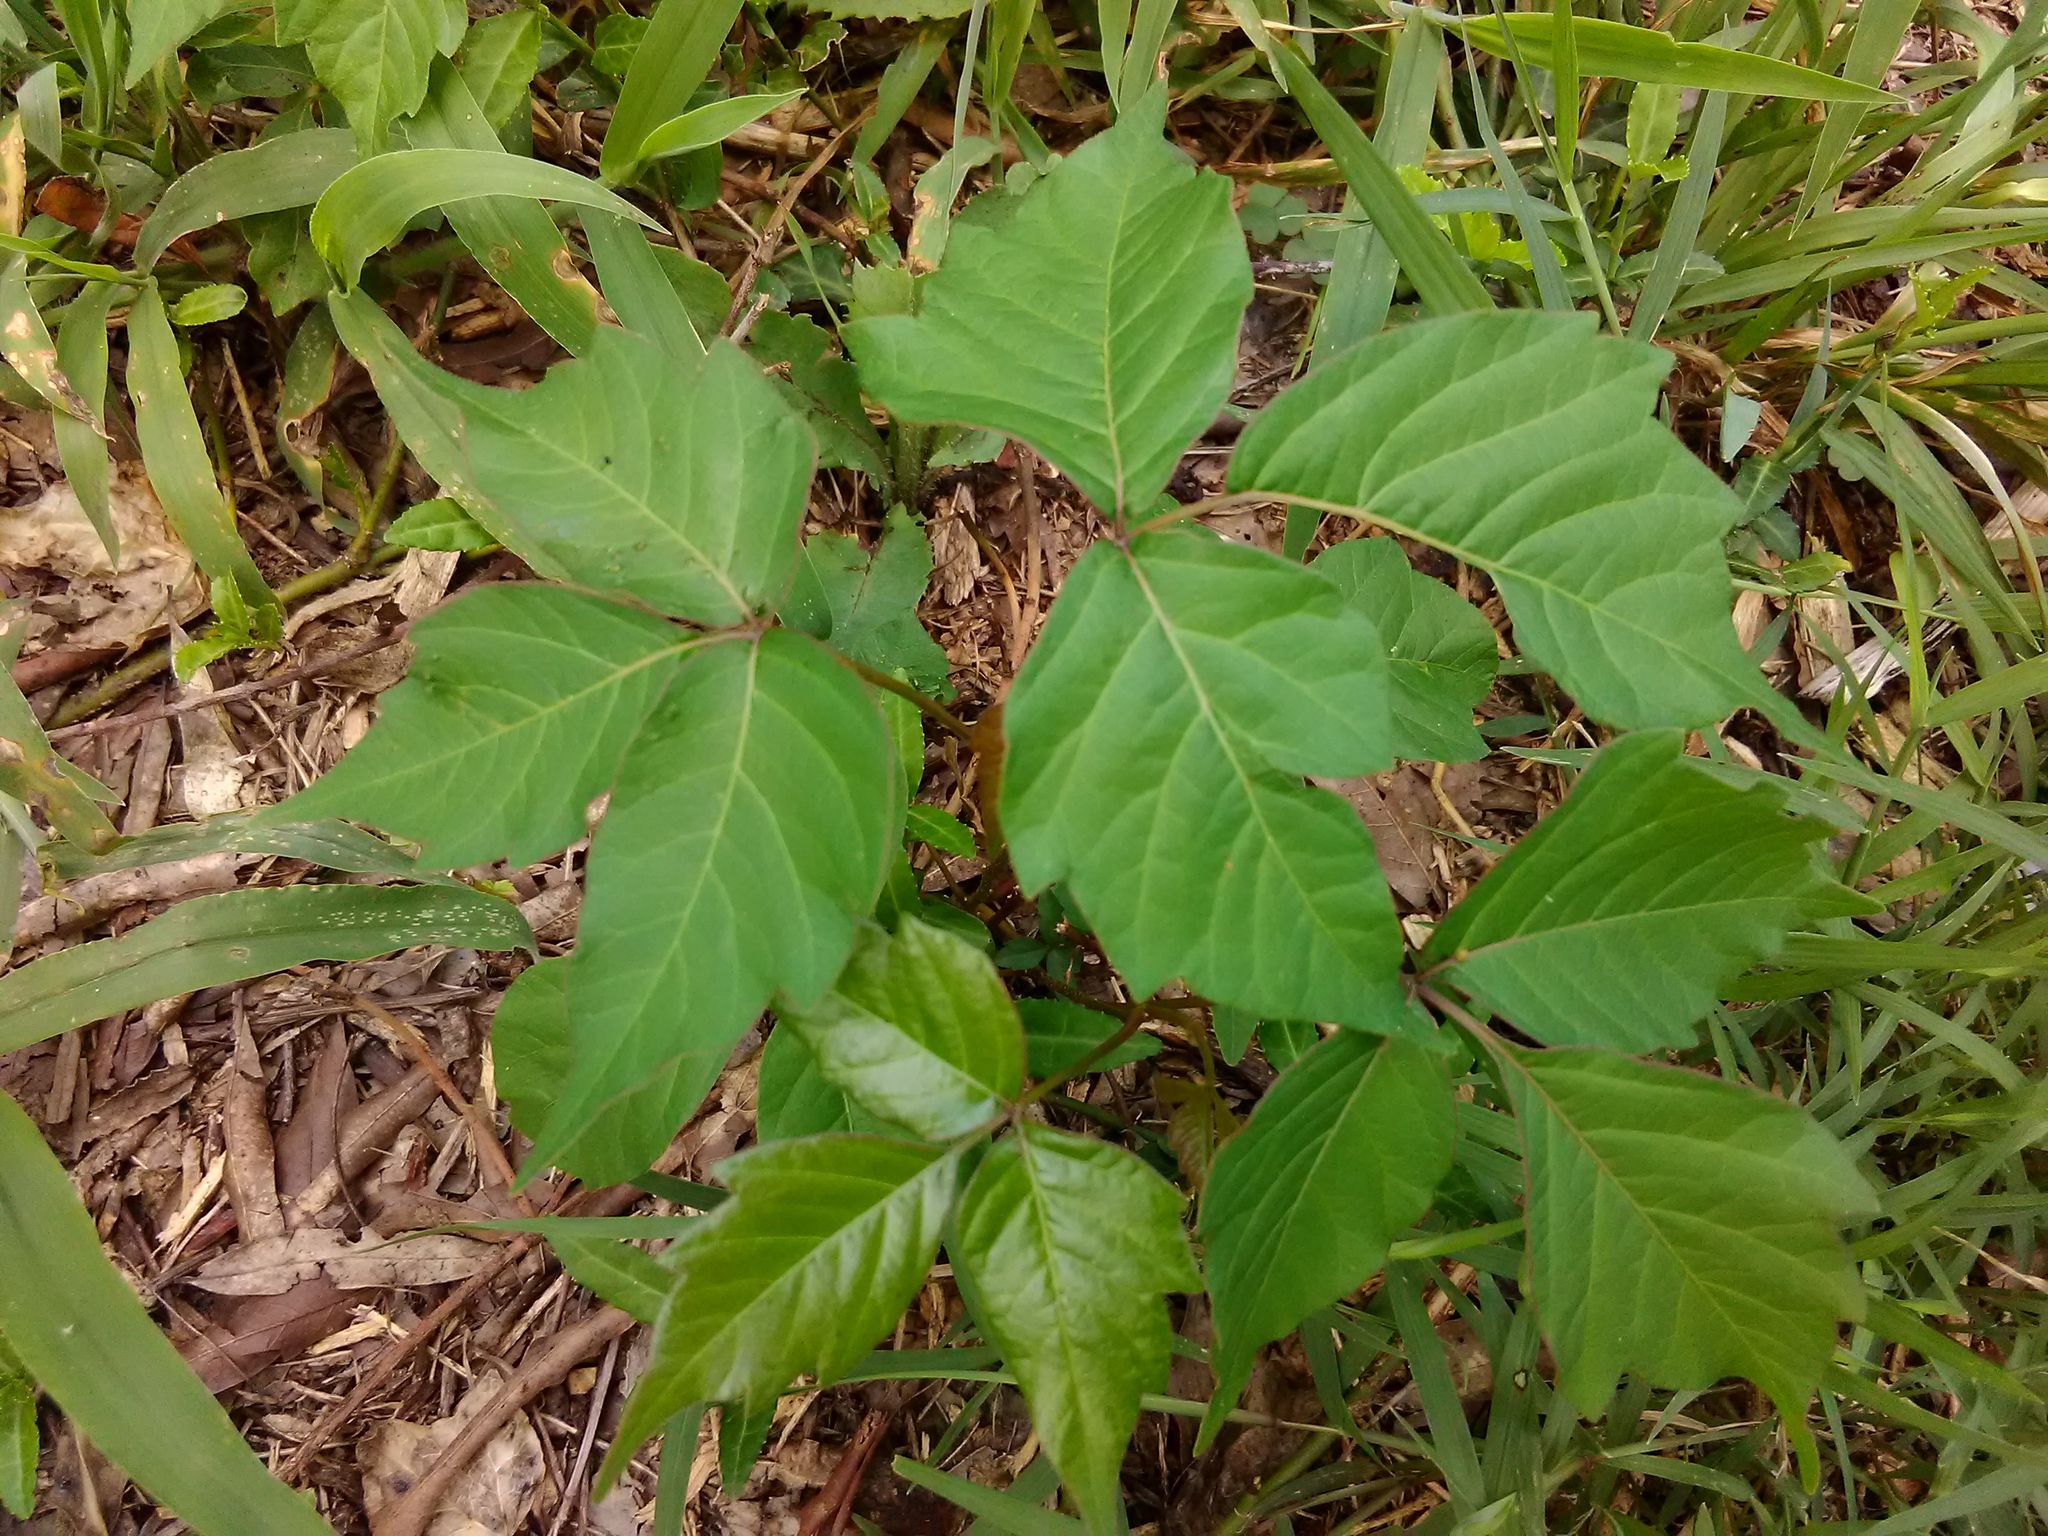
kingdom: Plantae
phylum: Tracheophyta
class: Magnoliopsida
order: Sapindales
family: Anacardiaceae
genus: Toxicodendron
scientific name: Toxicodendron radicans
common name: Poison ivy
